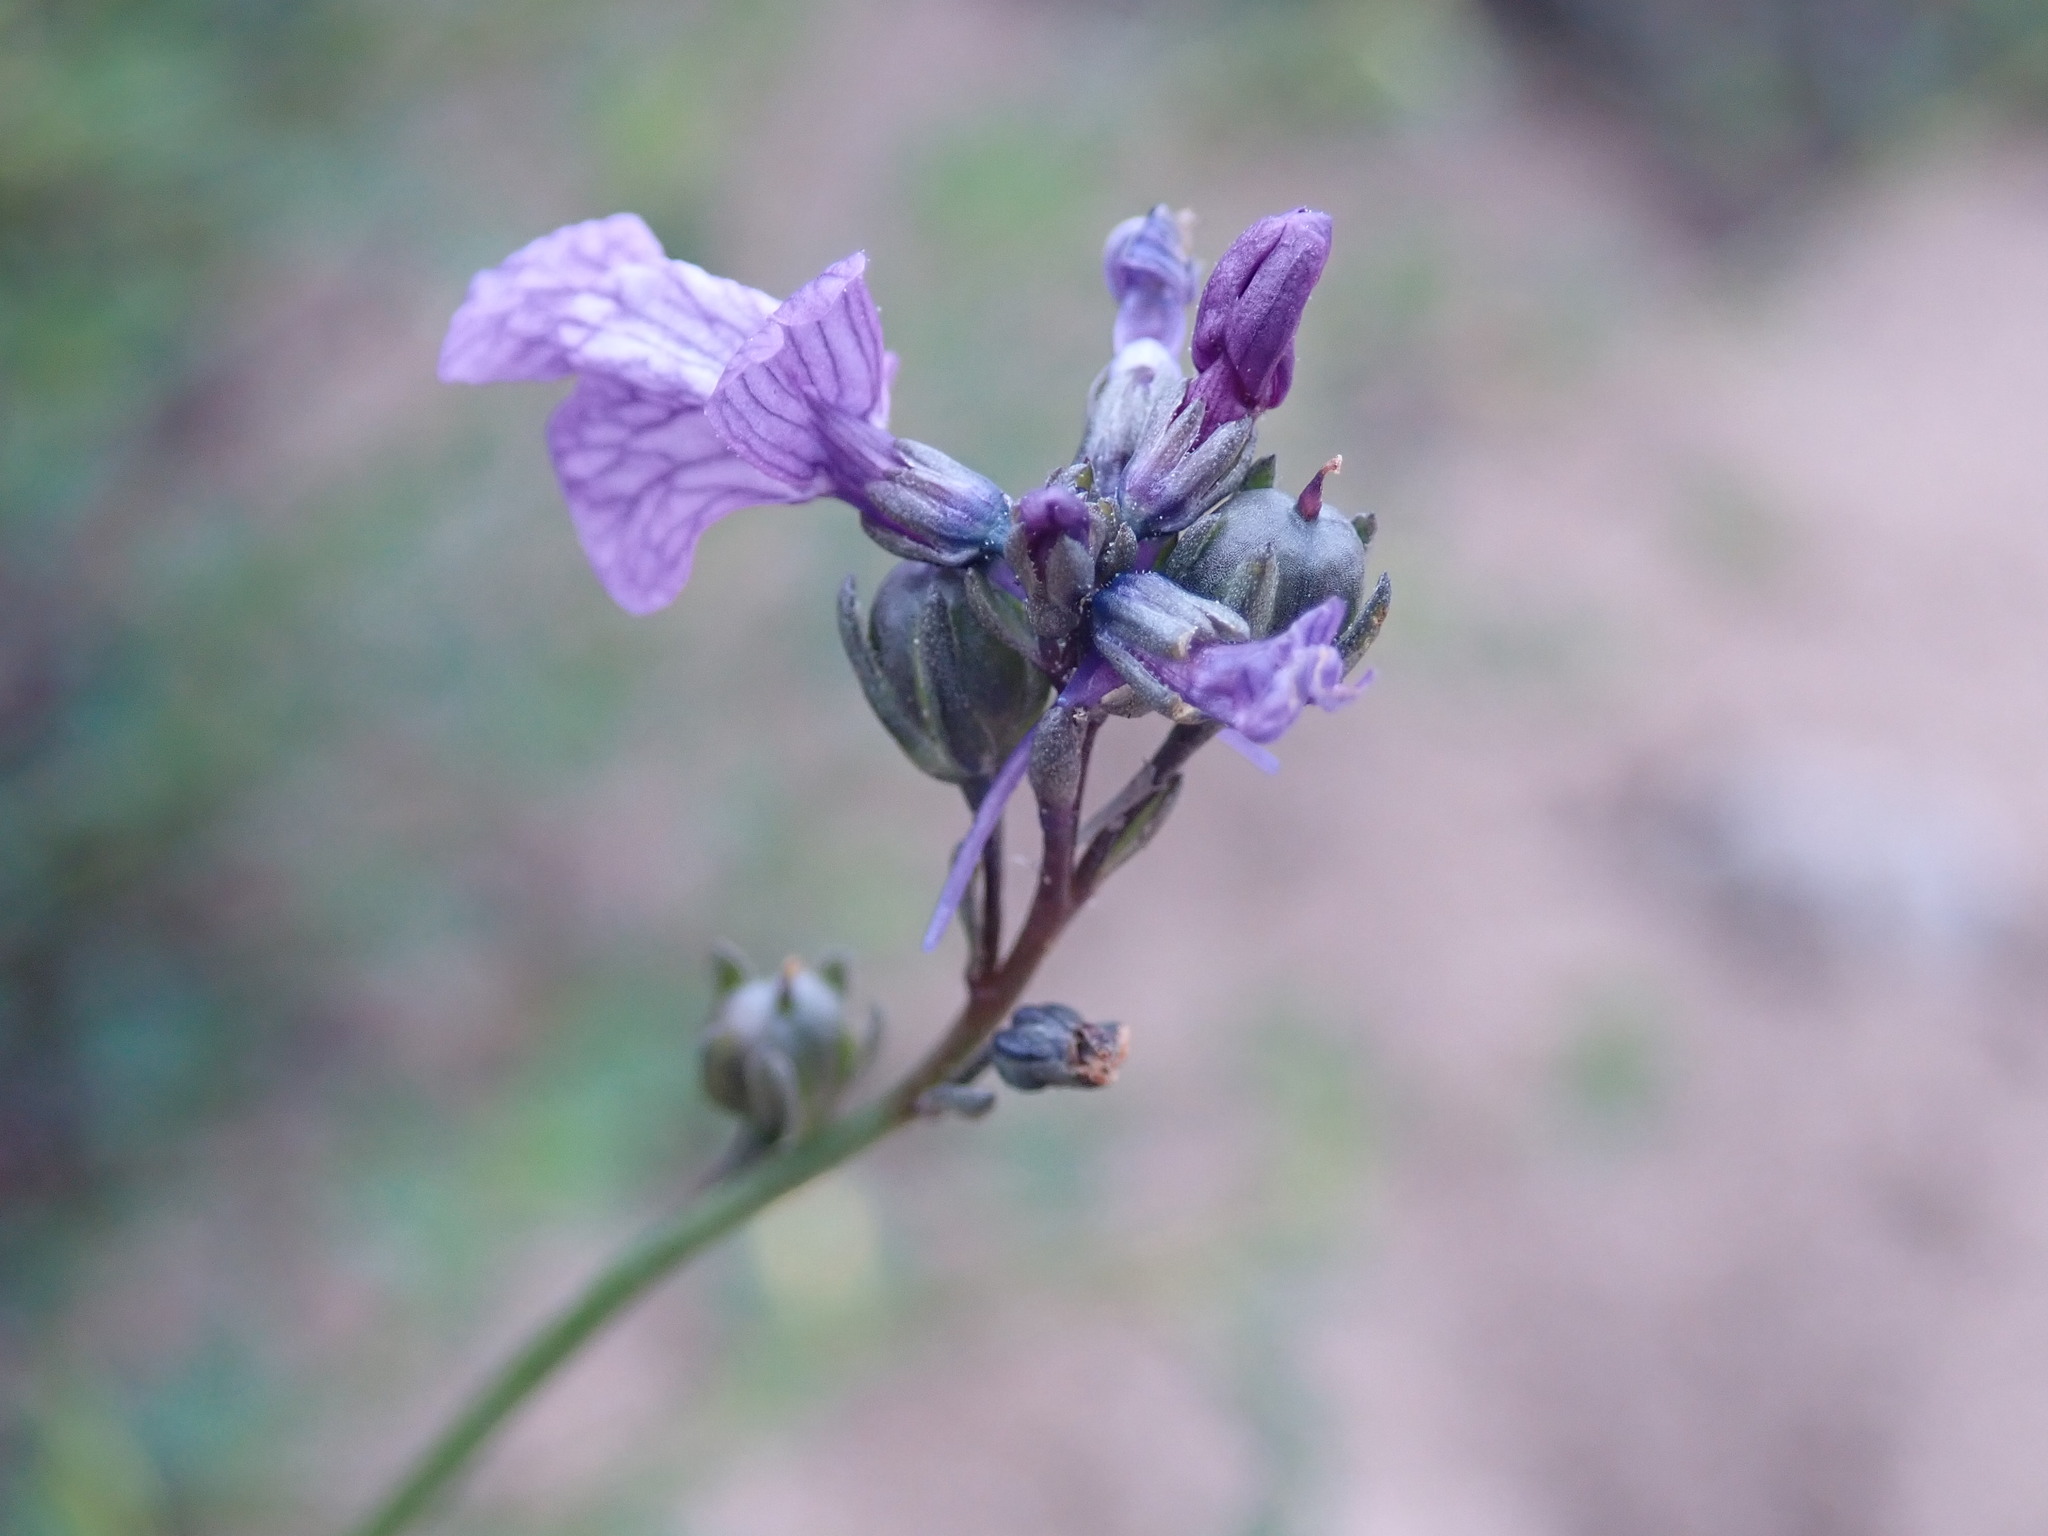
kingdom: Plantae
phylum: Tracheophyta
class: Magnoliopsida
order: Lamiales
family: Plantaginaceae
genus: Nuttallanthus
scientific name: Nuttallanthus texanus
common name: Texas toadflax
